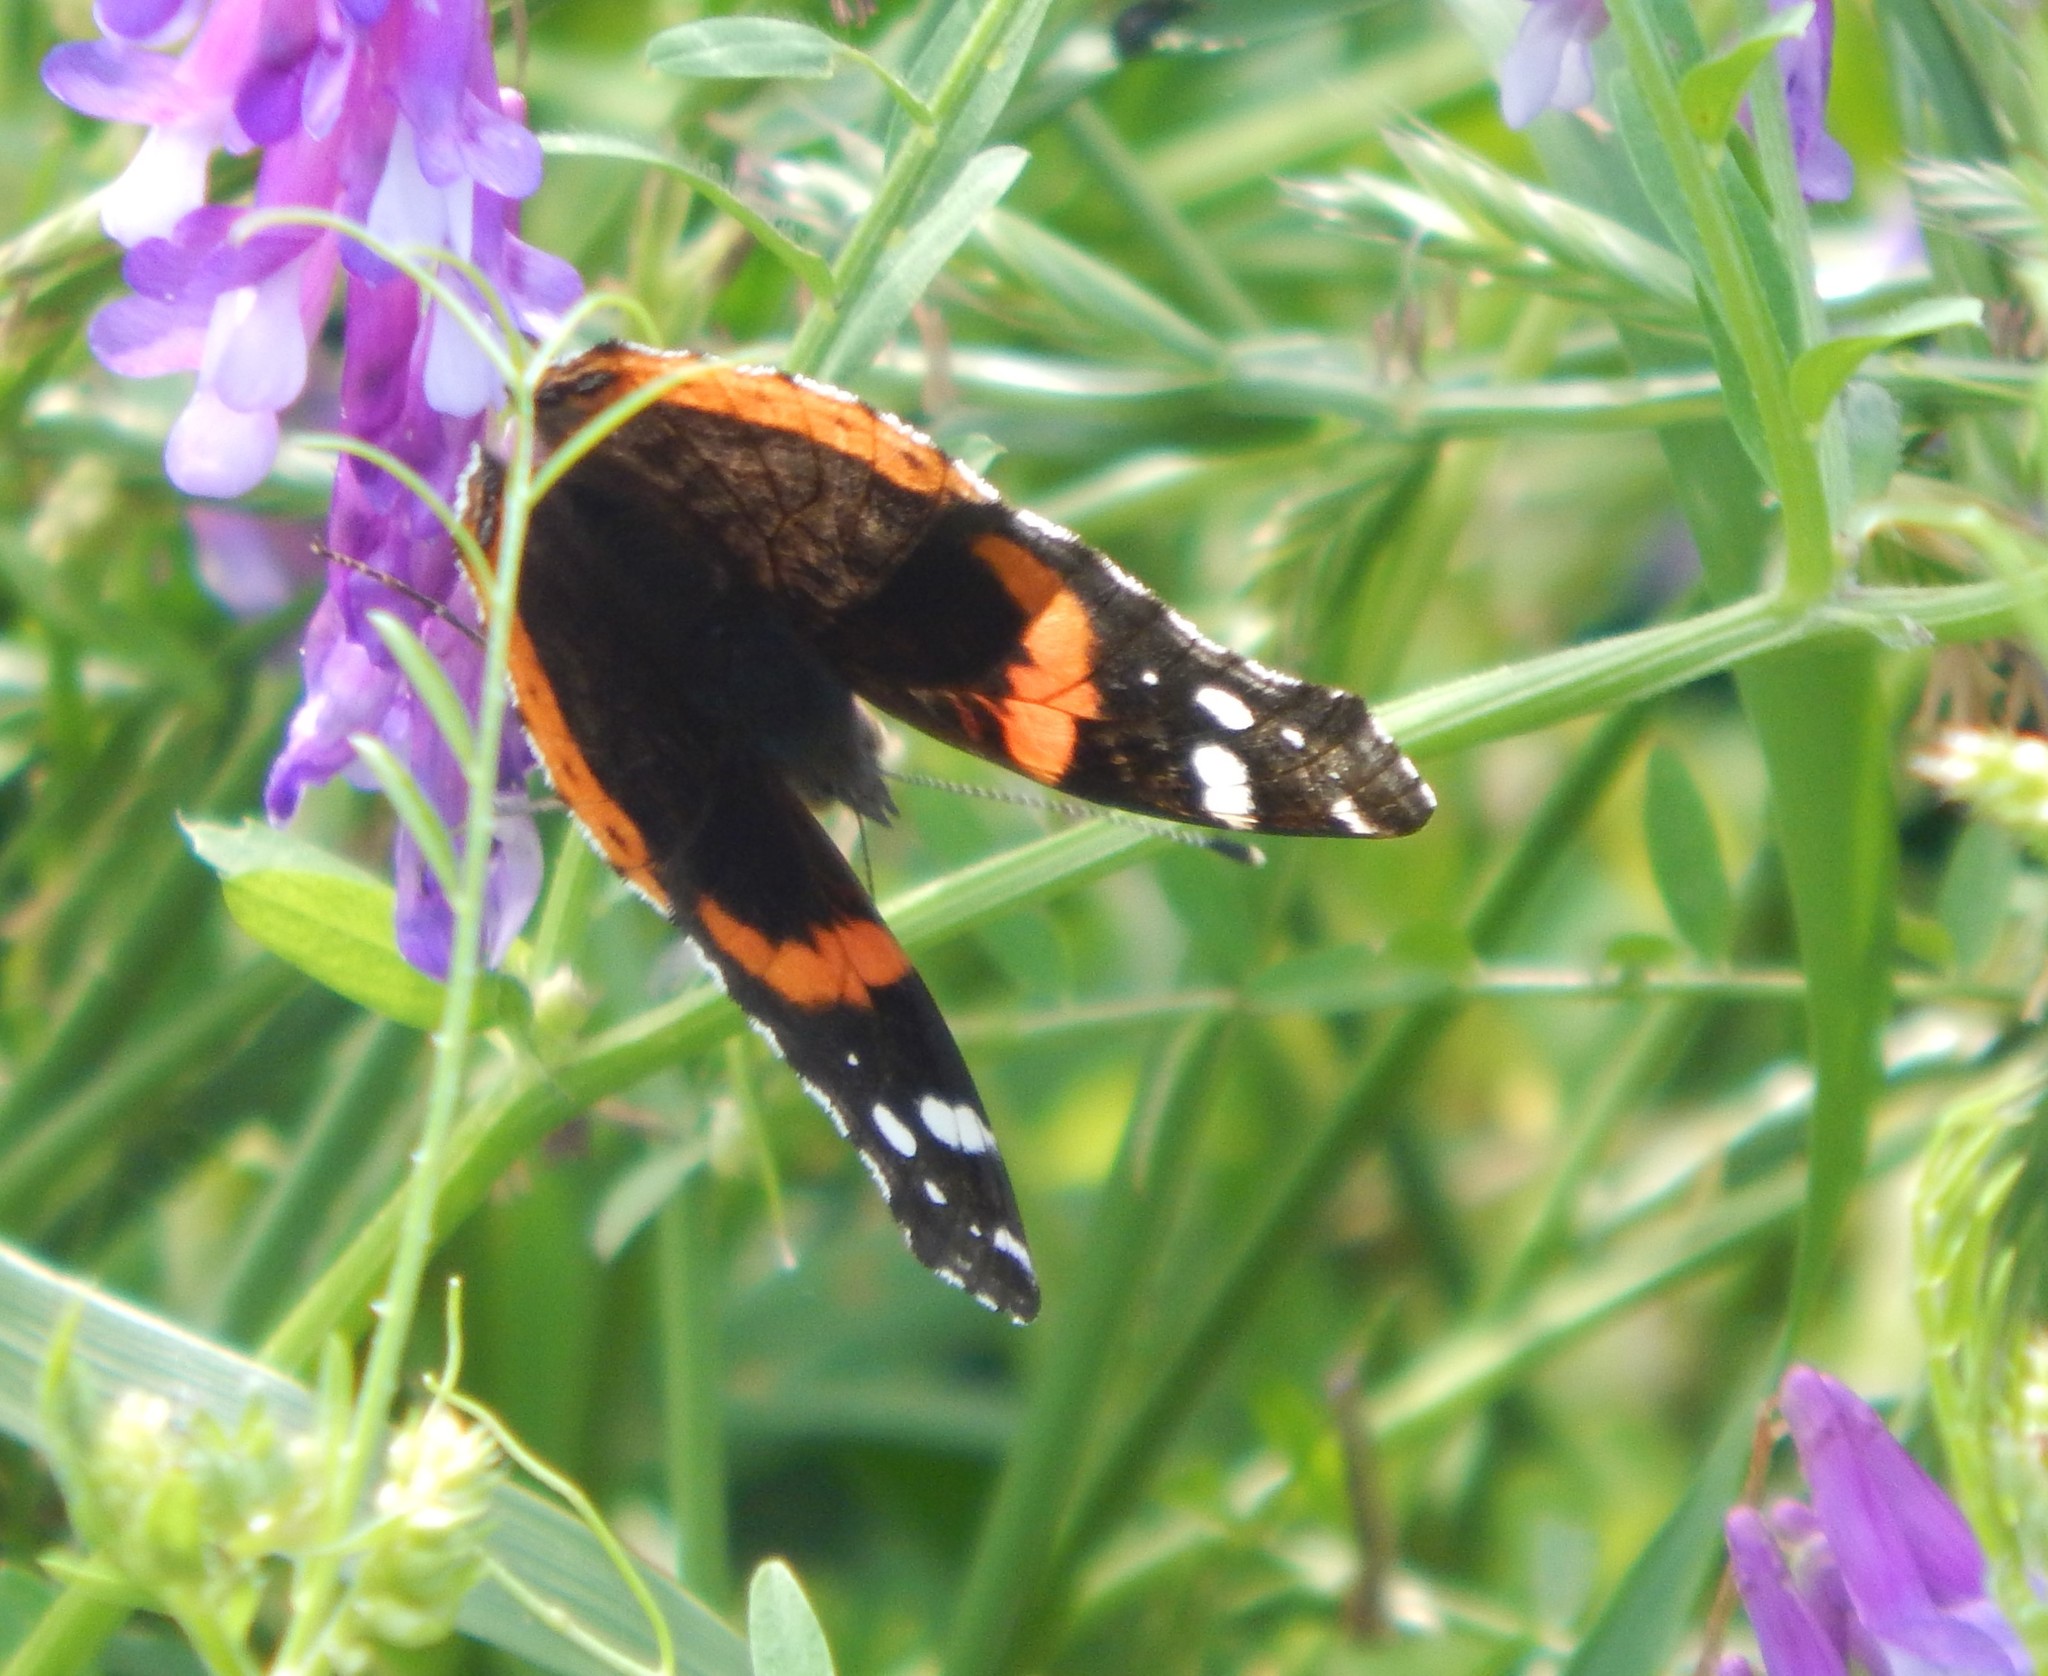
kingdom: Animalia
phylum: Arthropoda
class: Insecta
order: Lepidoptera
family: Nymphalidae
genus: Vanessa
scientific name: Vanessa atalanta
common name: Red admiral
